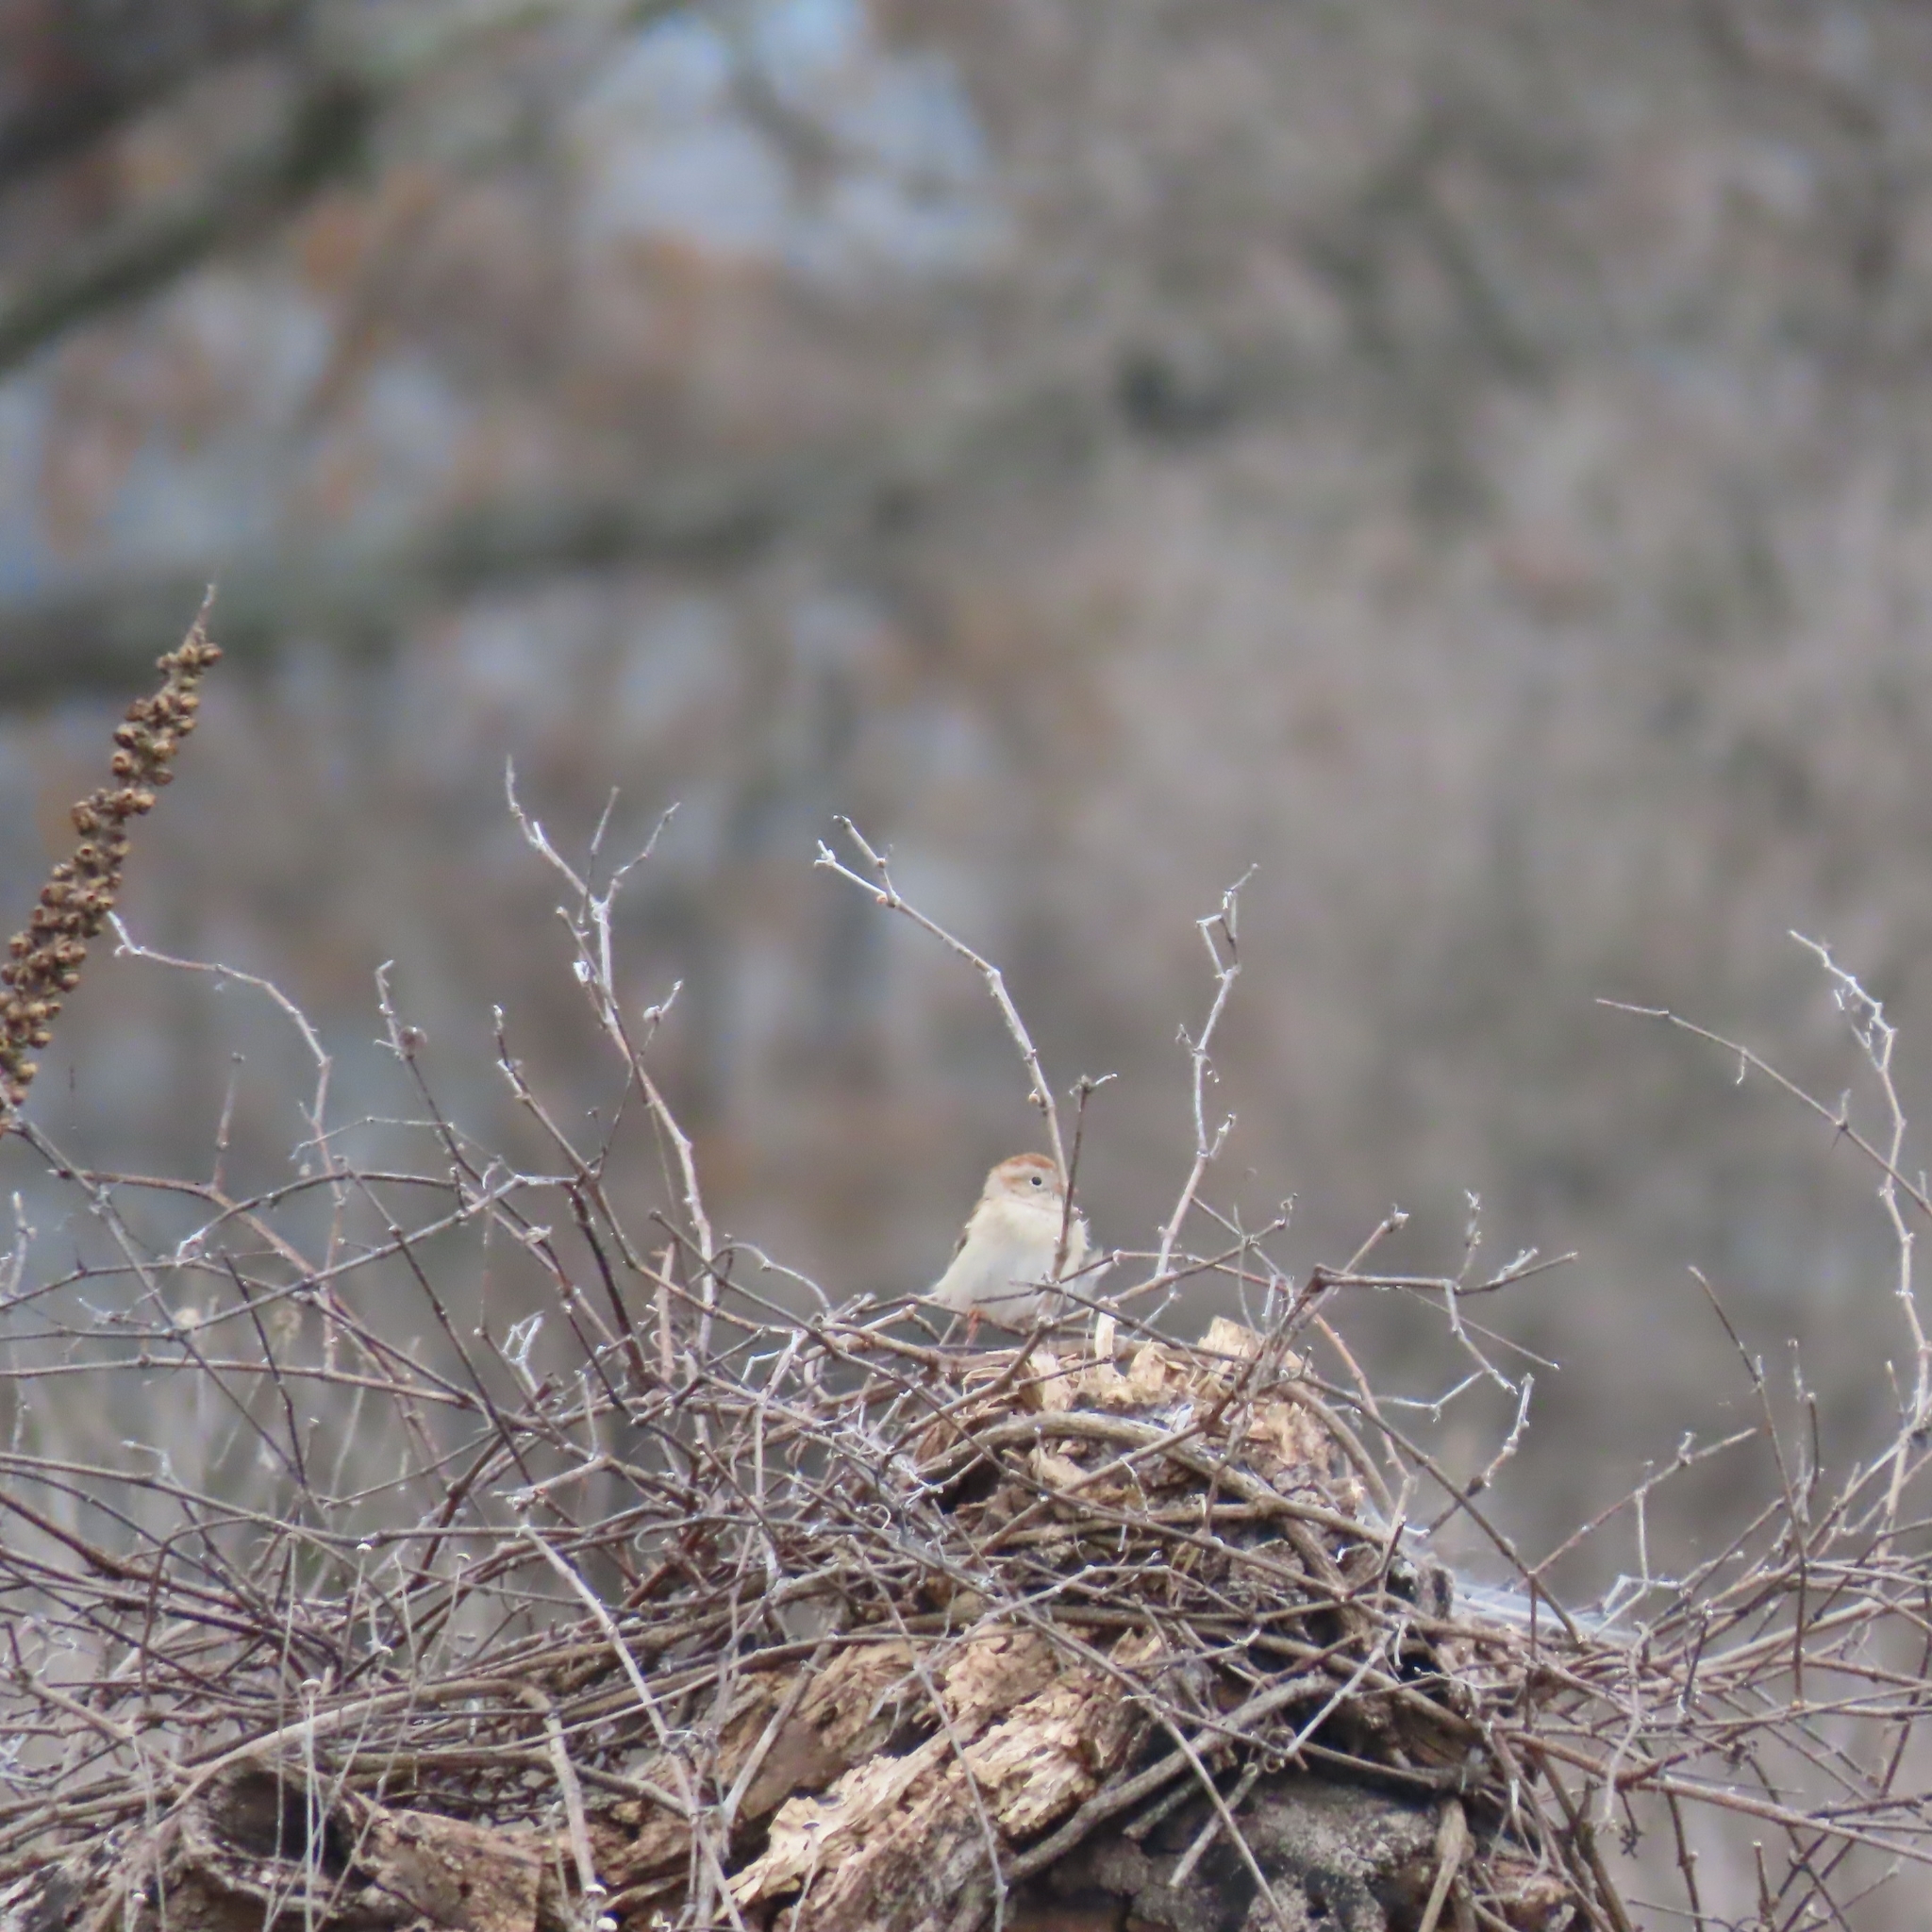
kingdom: Animalia
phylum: Chordata
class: Aves
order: Passeriformes
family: Passerellidae
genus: Spizella
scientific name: Spizella pusilla
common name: Field sparrow
